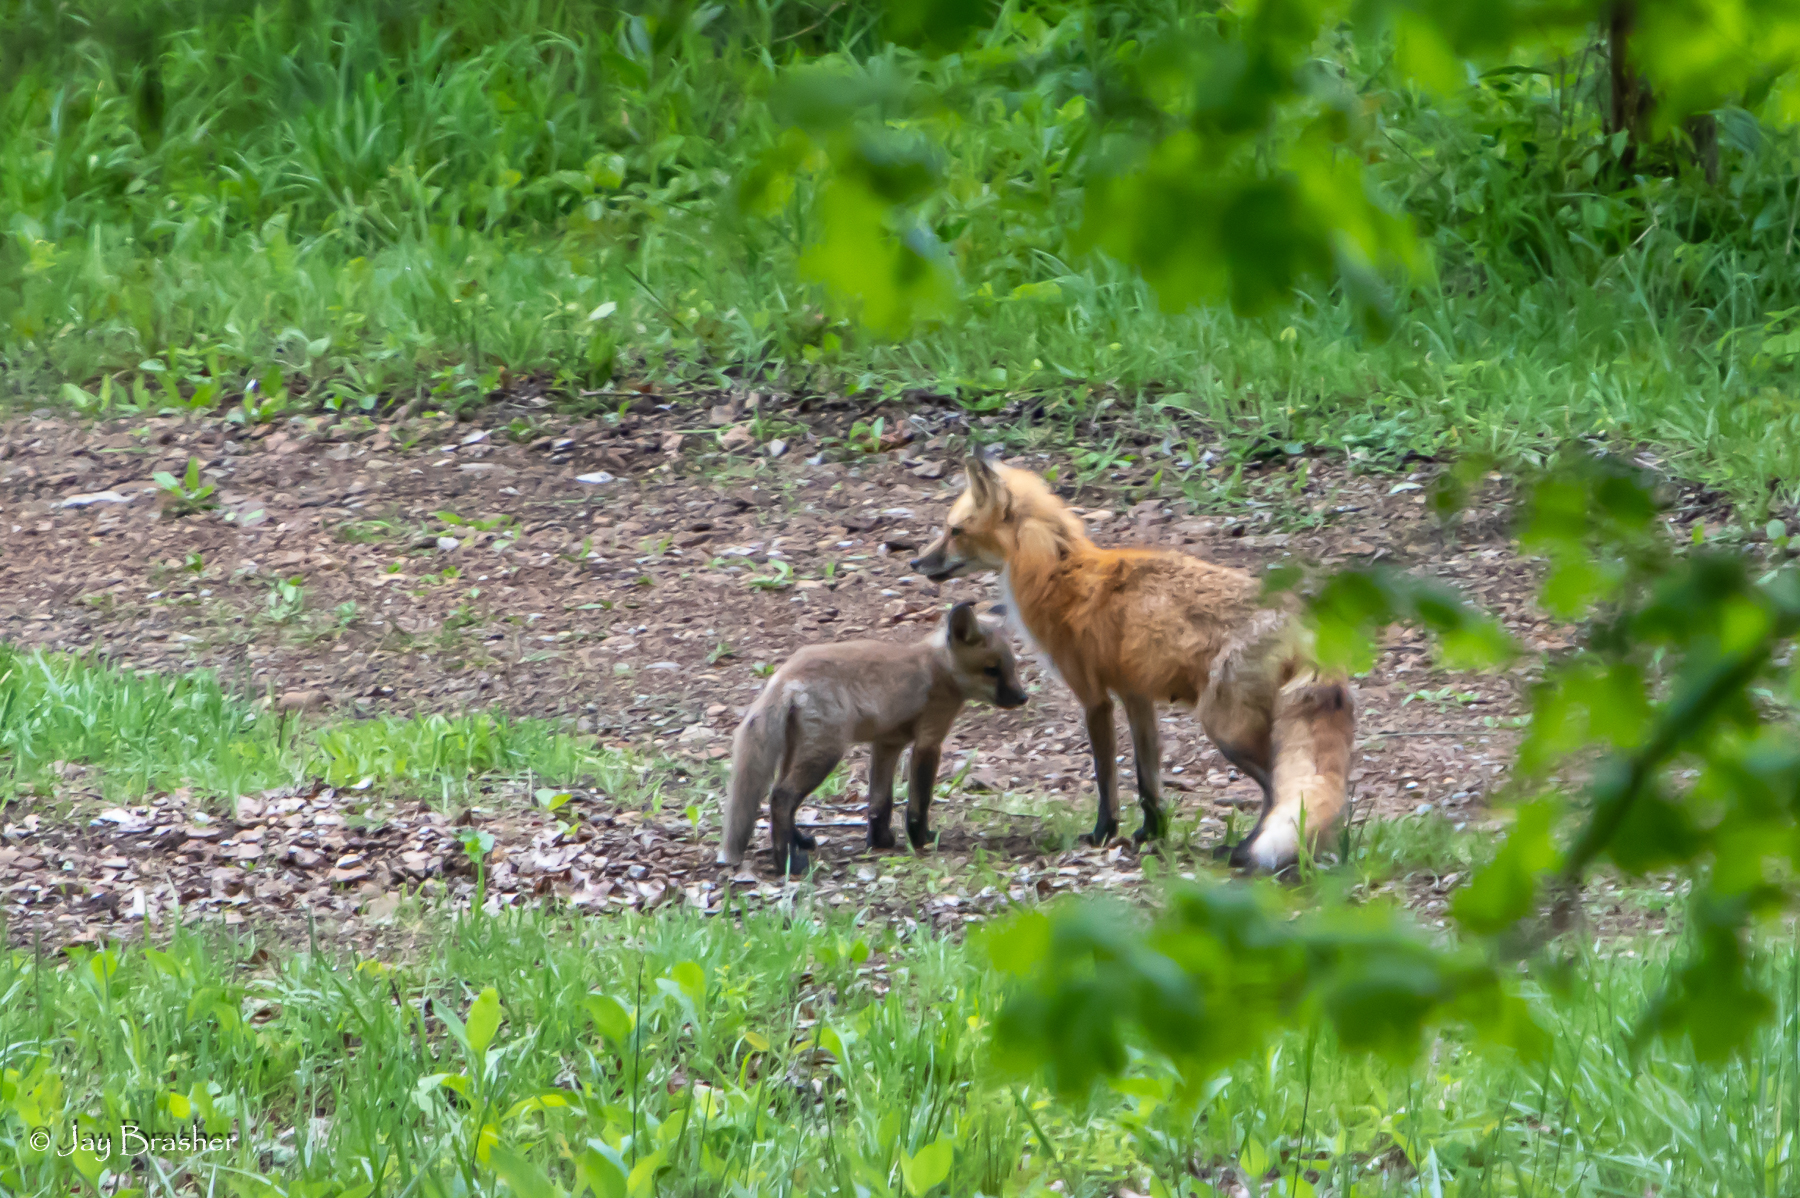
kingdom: Animalia
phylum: Chordata
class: Mammalia
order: Carnivora
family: Canidae
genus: Vulpes
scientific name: Vulpes vulpes
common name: Red fox
